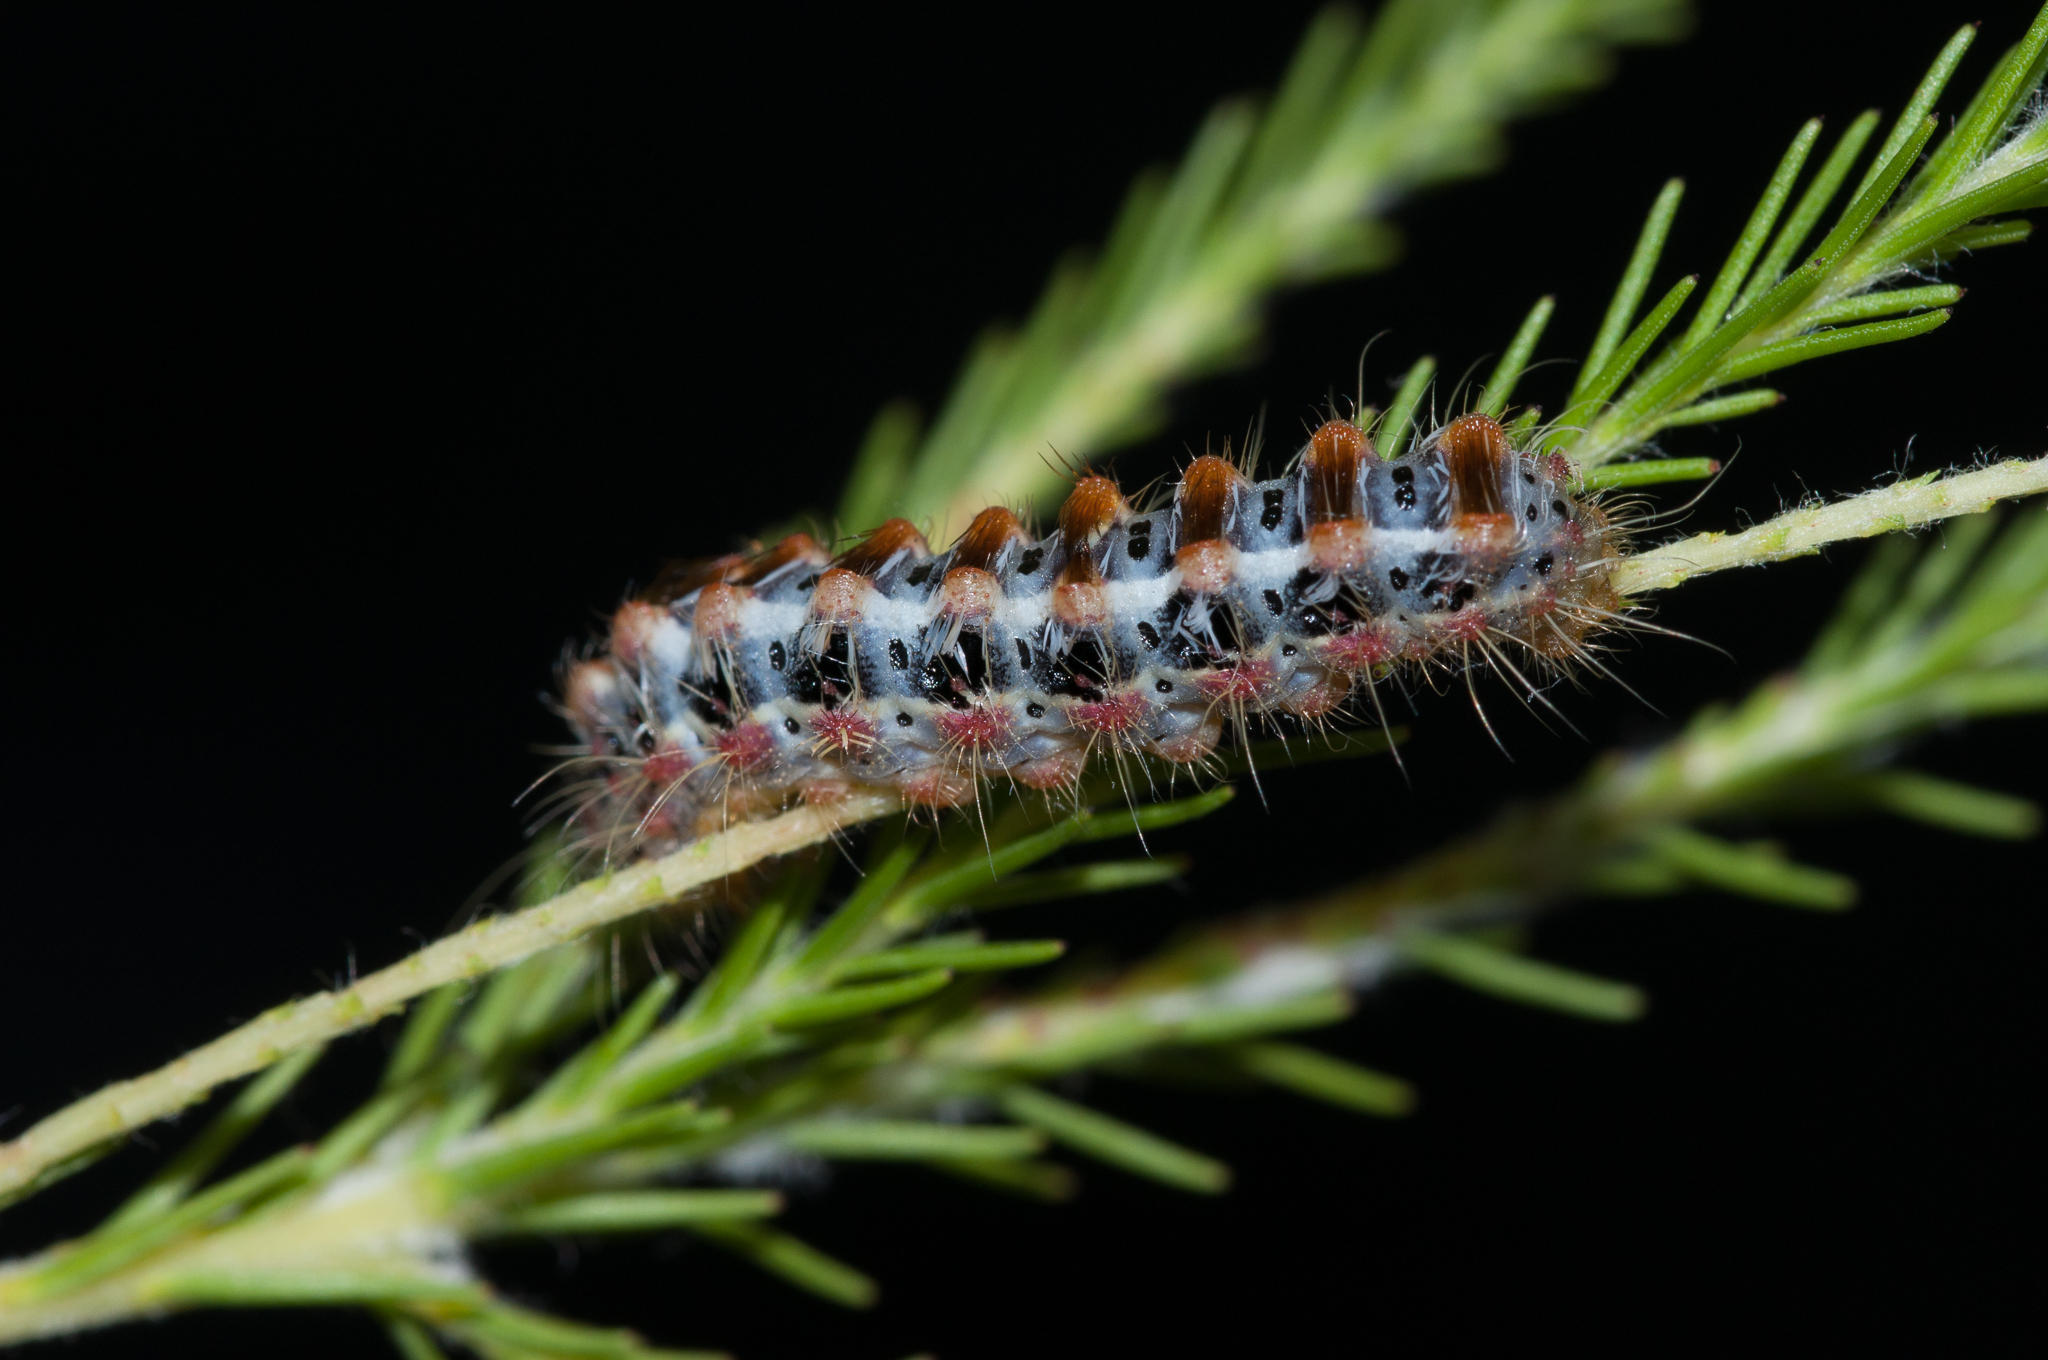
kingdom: Animalia
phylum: Arthropoda
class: Insecta
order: Lepidoptera
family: Somabrachyidae
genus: Psycharium
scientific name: Psycharium pellucens
